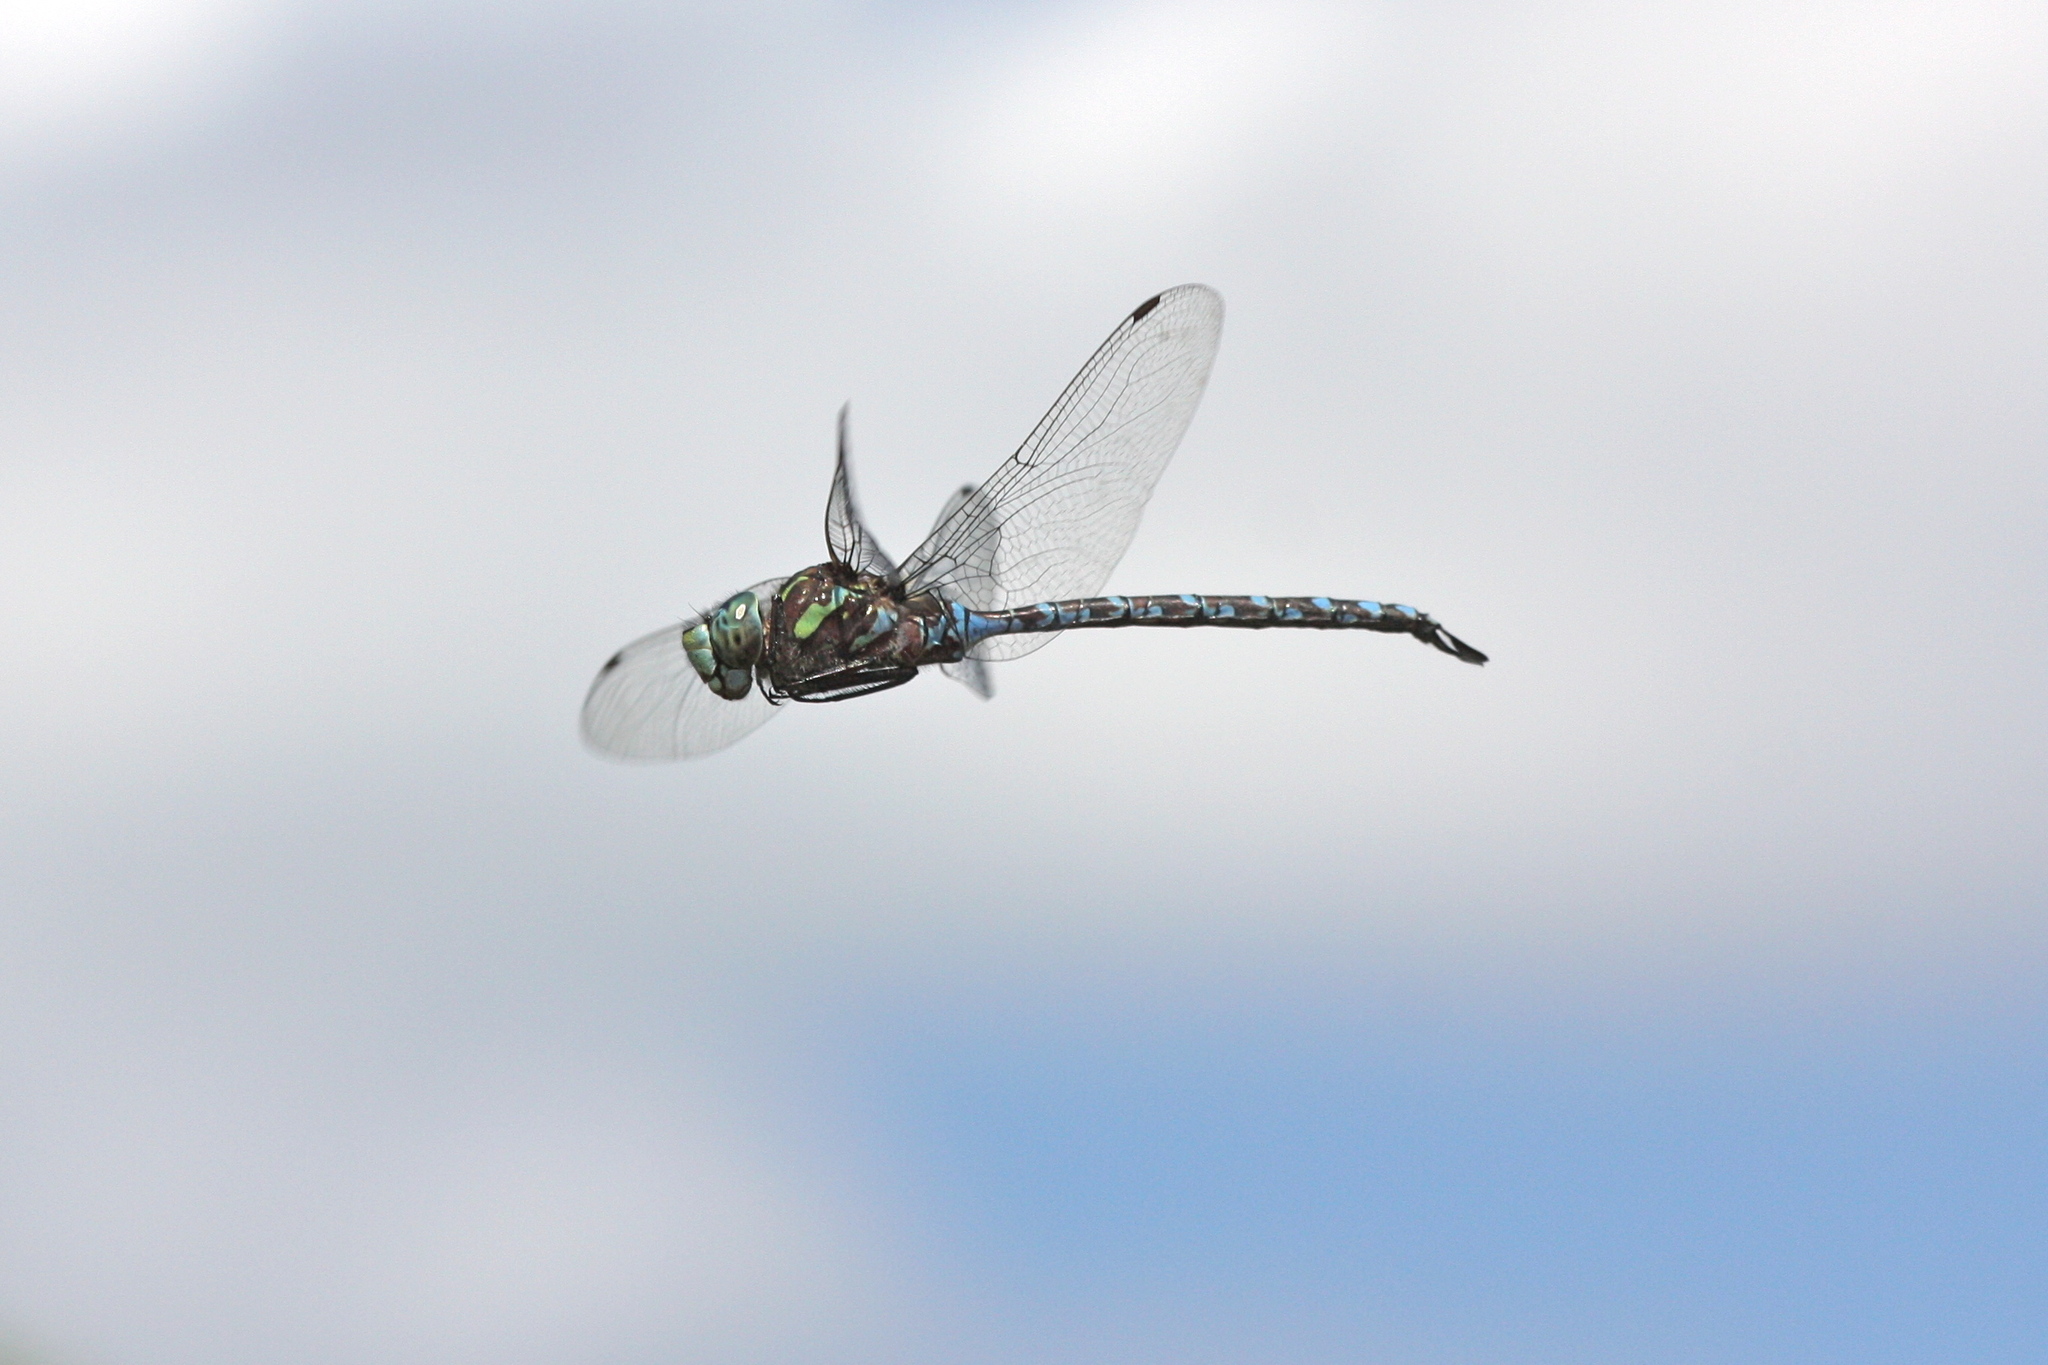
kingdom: Animalia
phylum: Arthropoda
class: Insecta
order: Odonata
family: Aeshnidae
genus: Aeshna
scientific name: Aeshna canadensis
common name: Canada darner
